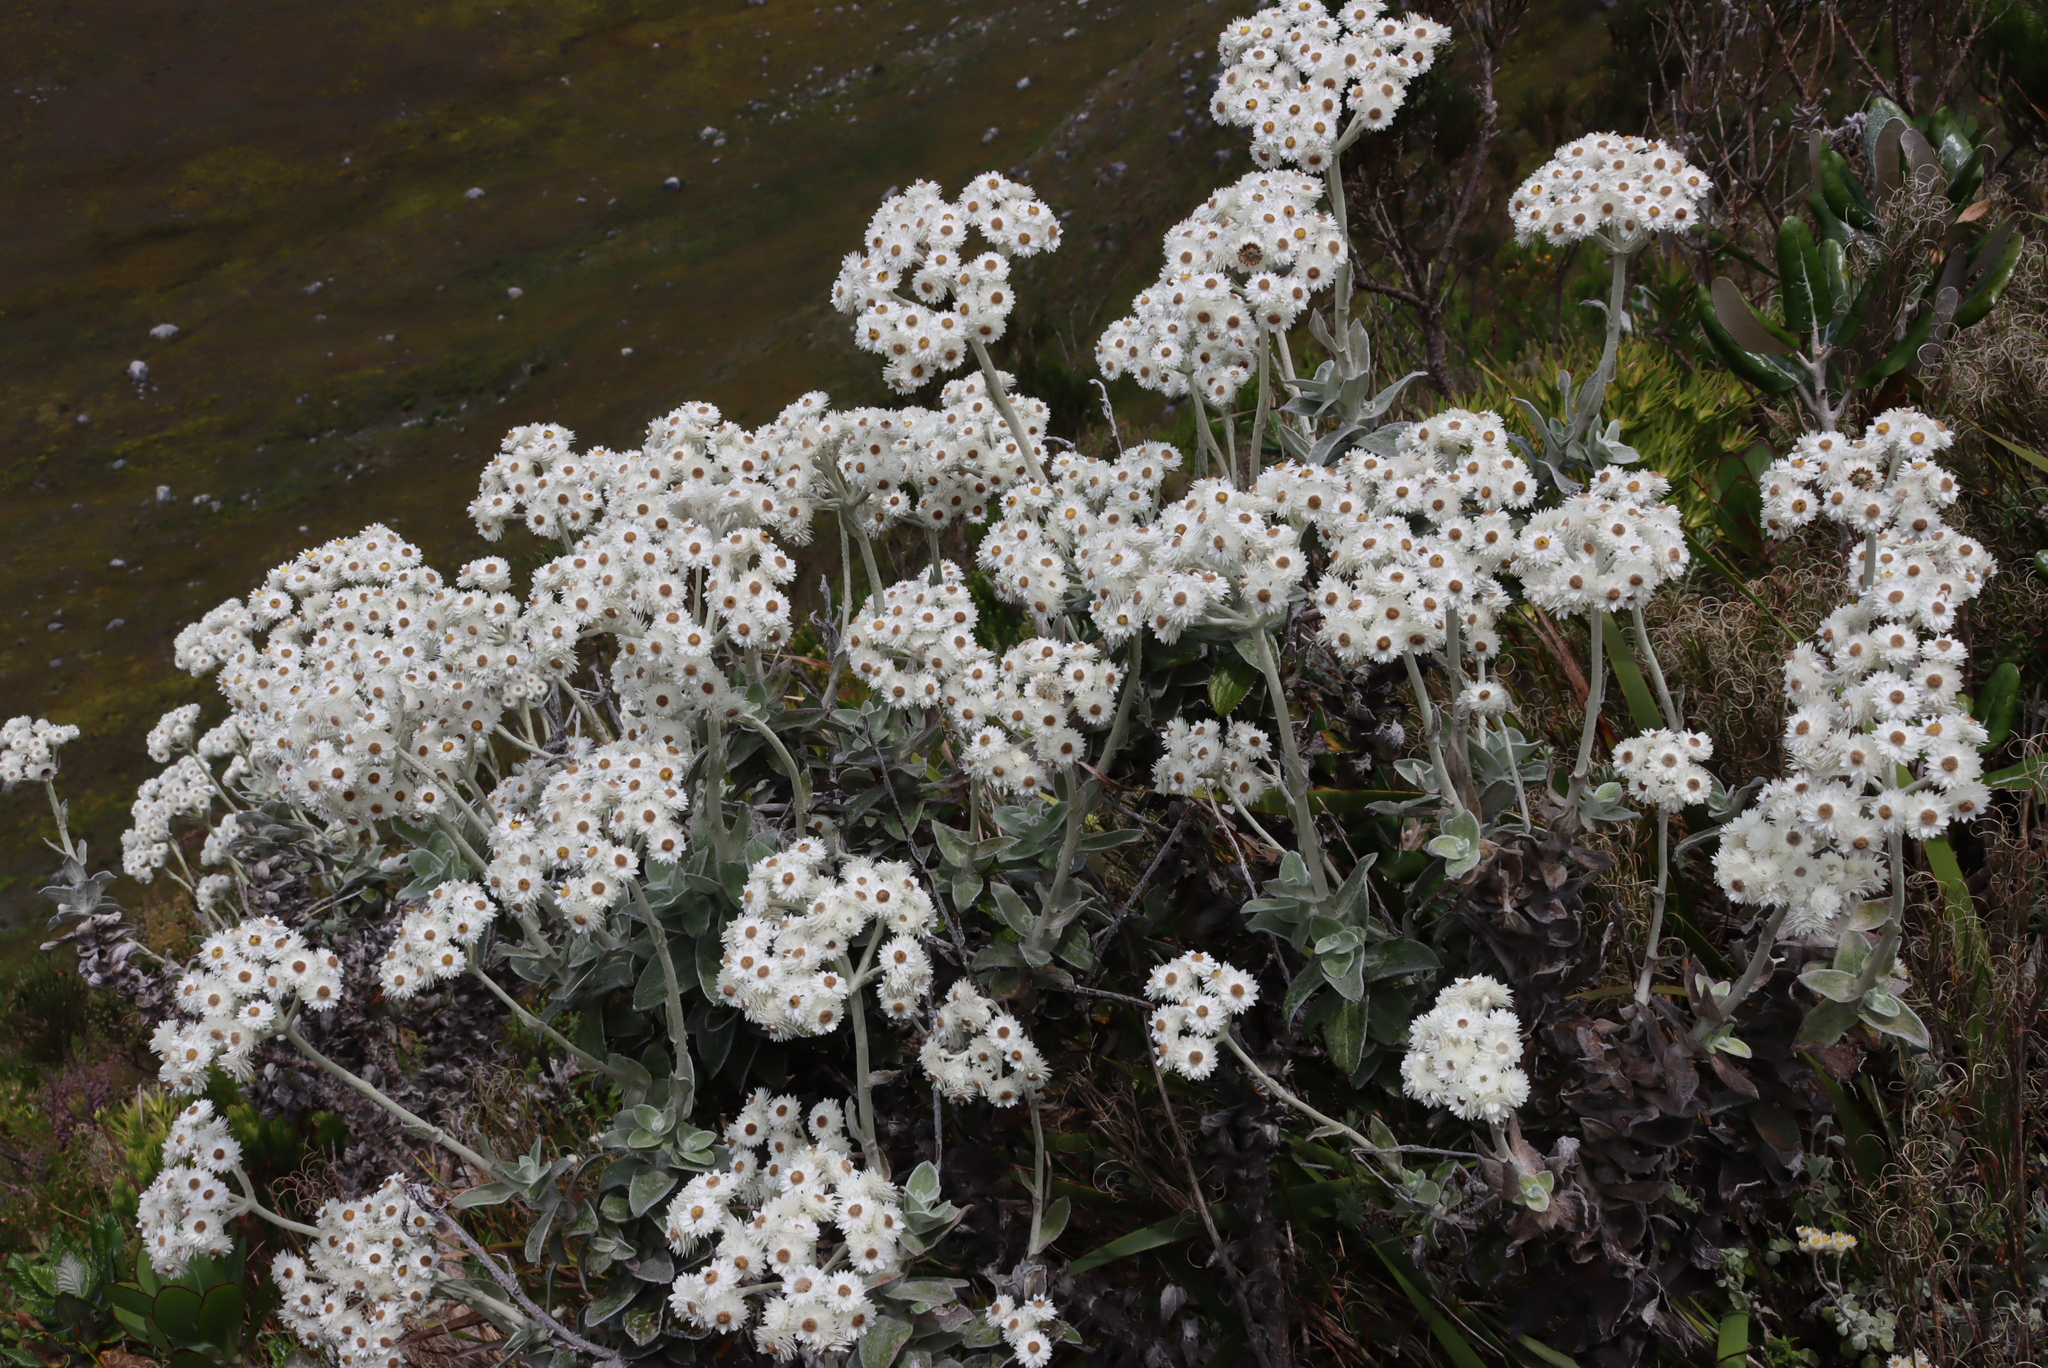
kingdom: Plantae
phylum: Tracheophyta
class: Magnoliopsida
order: Asterales
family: Asteraceae
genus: Helichrysum
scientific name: Helichrysum fruticans
